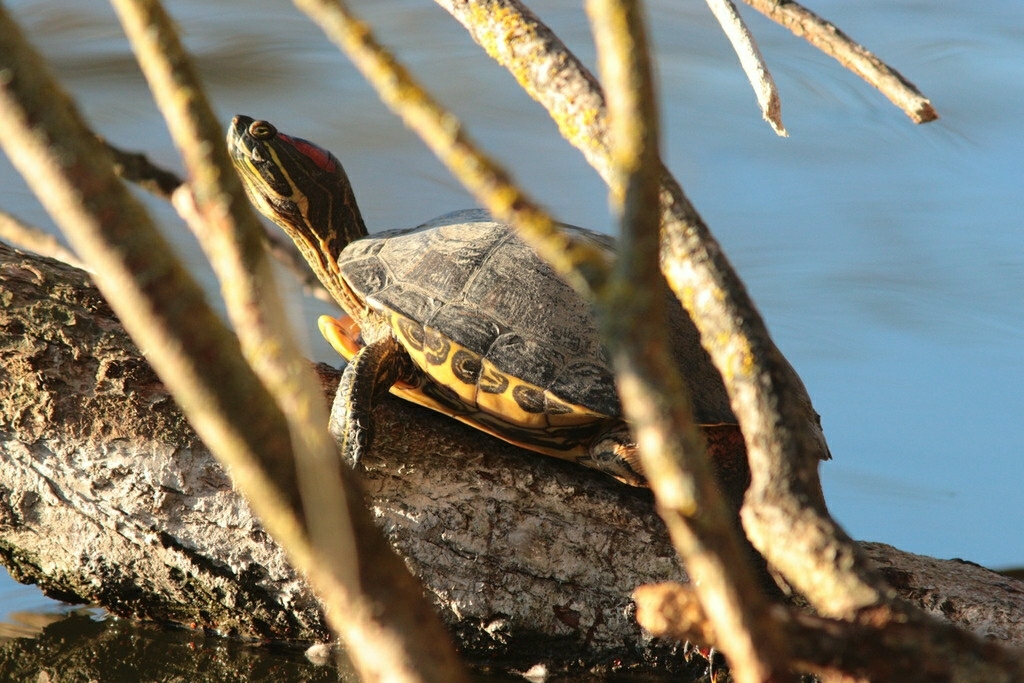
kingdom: Animalia
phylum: Chordata
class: Testudines
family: Emydidae
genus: Trachemys
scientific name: Trachemys scripta
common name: Slider
